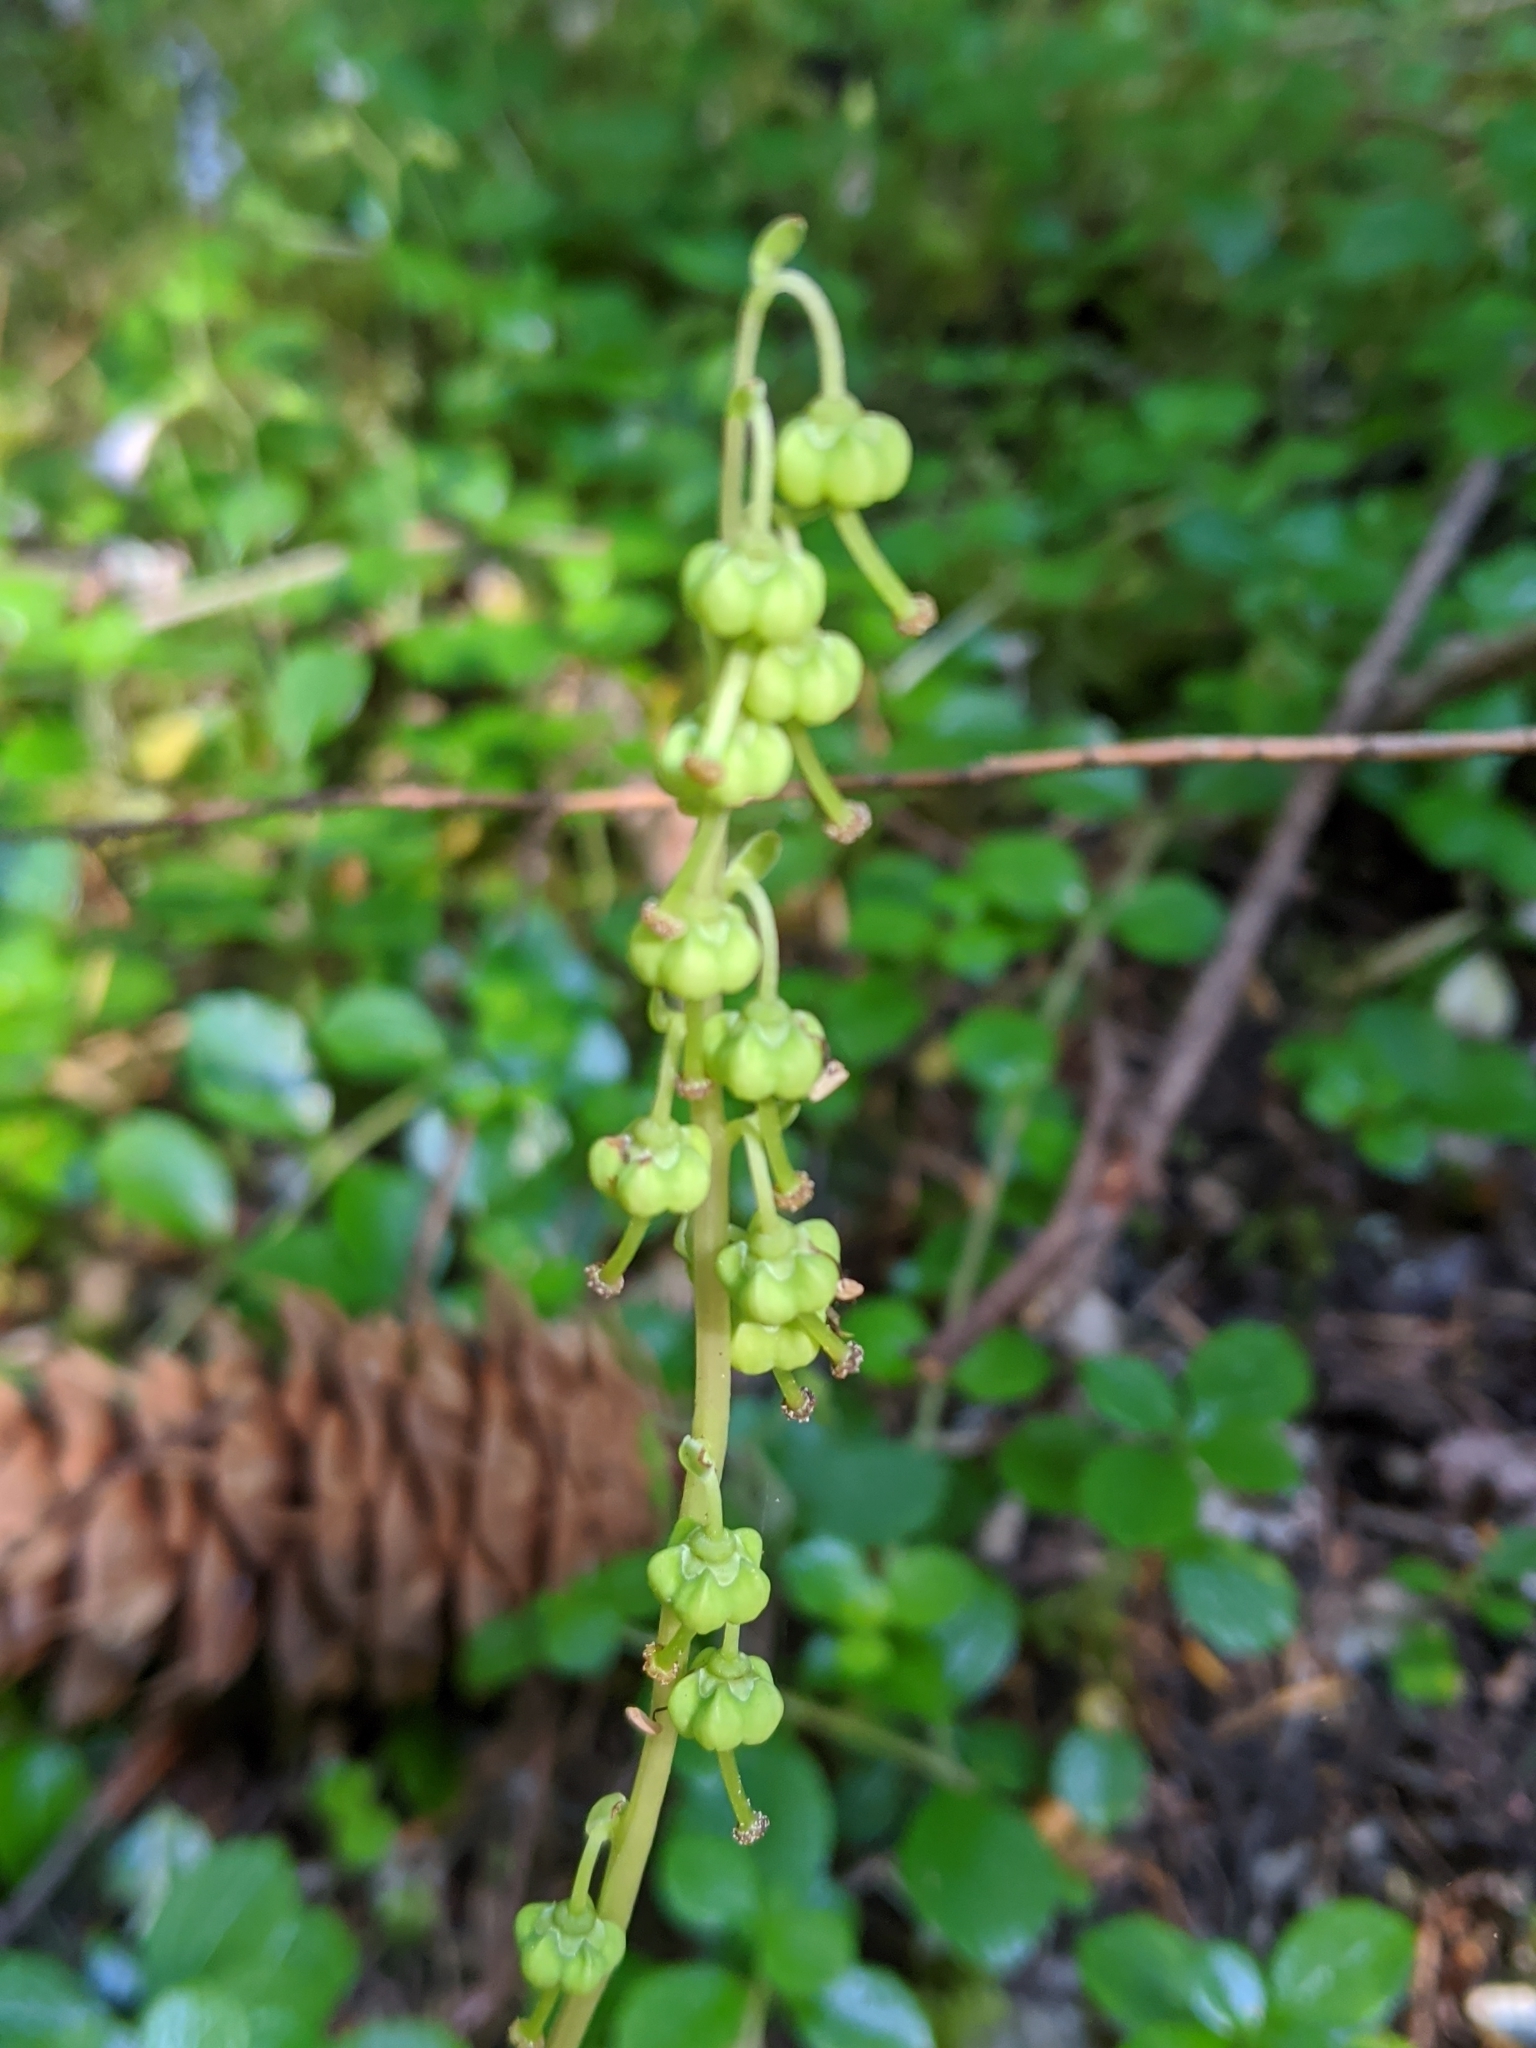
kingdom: Plantae
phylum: Tracheophyta
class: Magnoliopsida
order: Ericales
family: Ericaceae
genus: Orthilia
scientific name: Orthilia secunda
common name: One-sided orthilia
